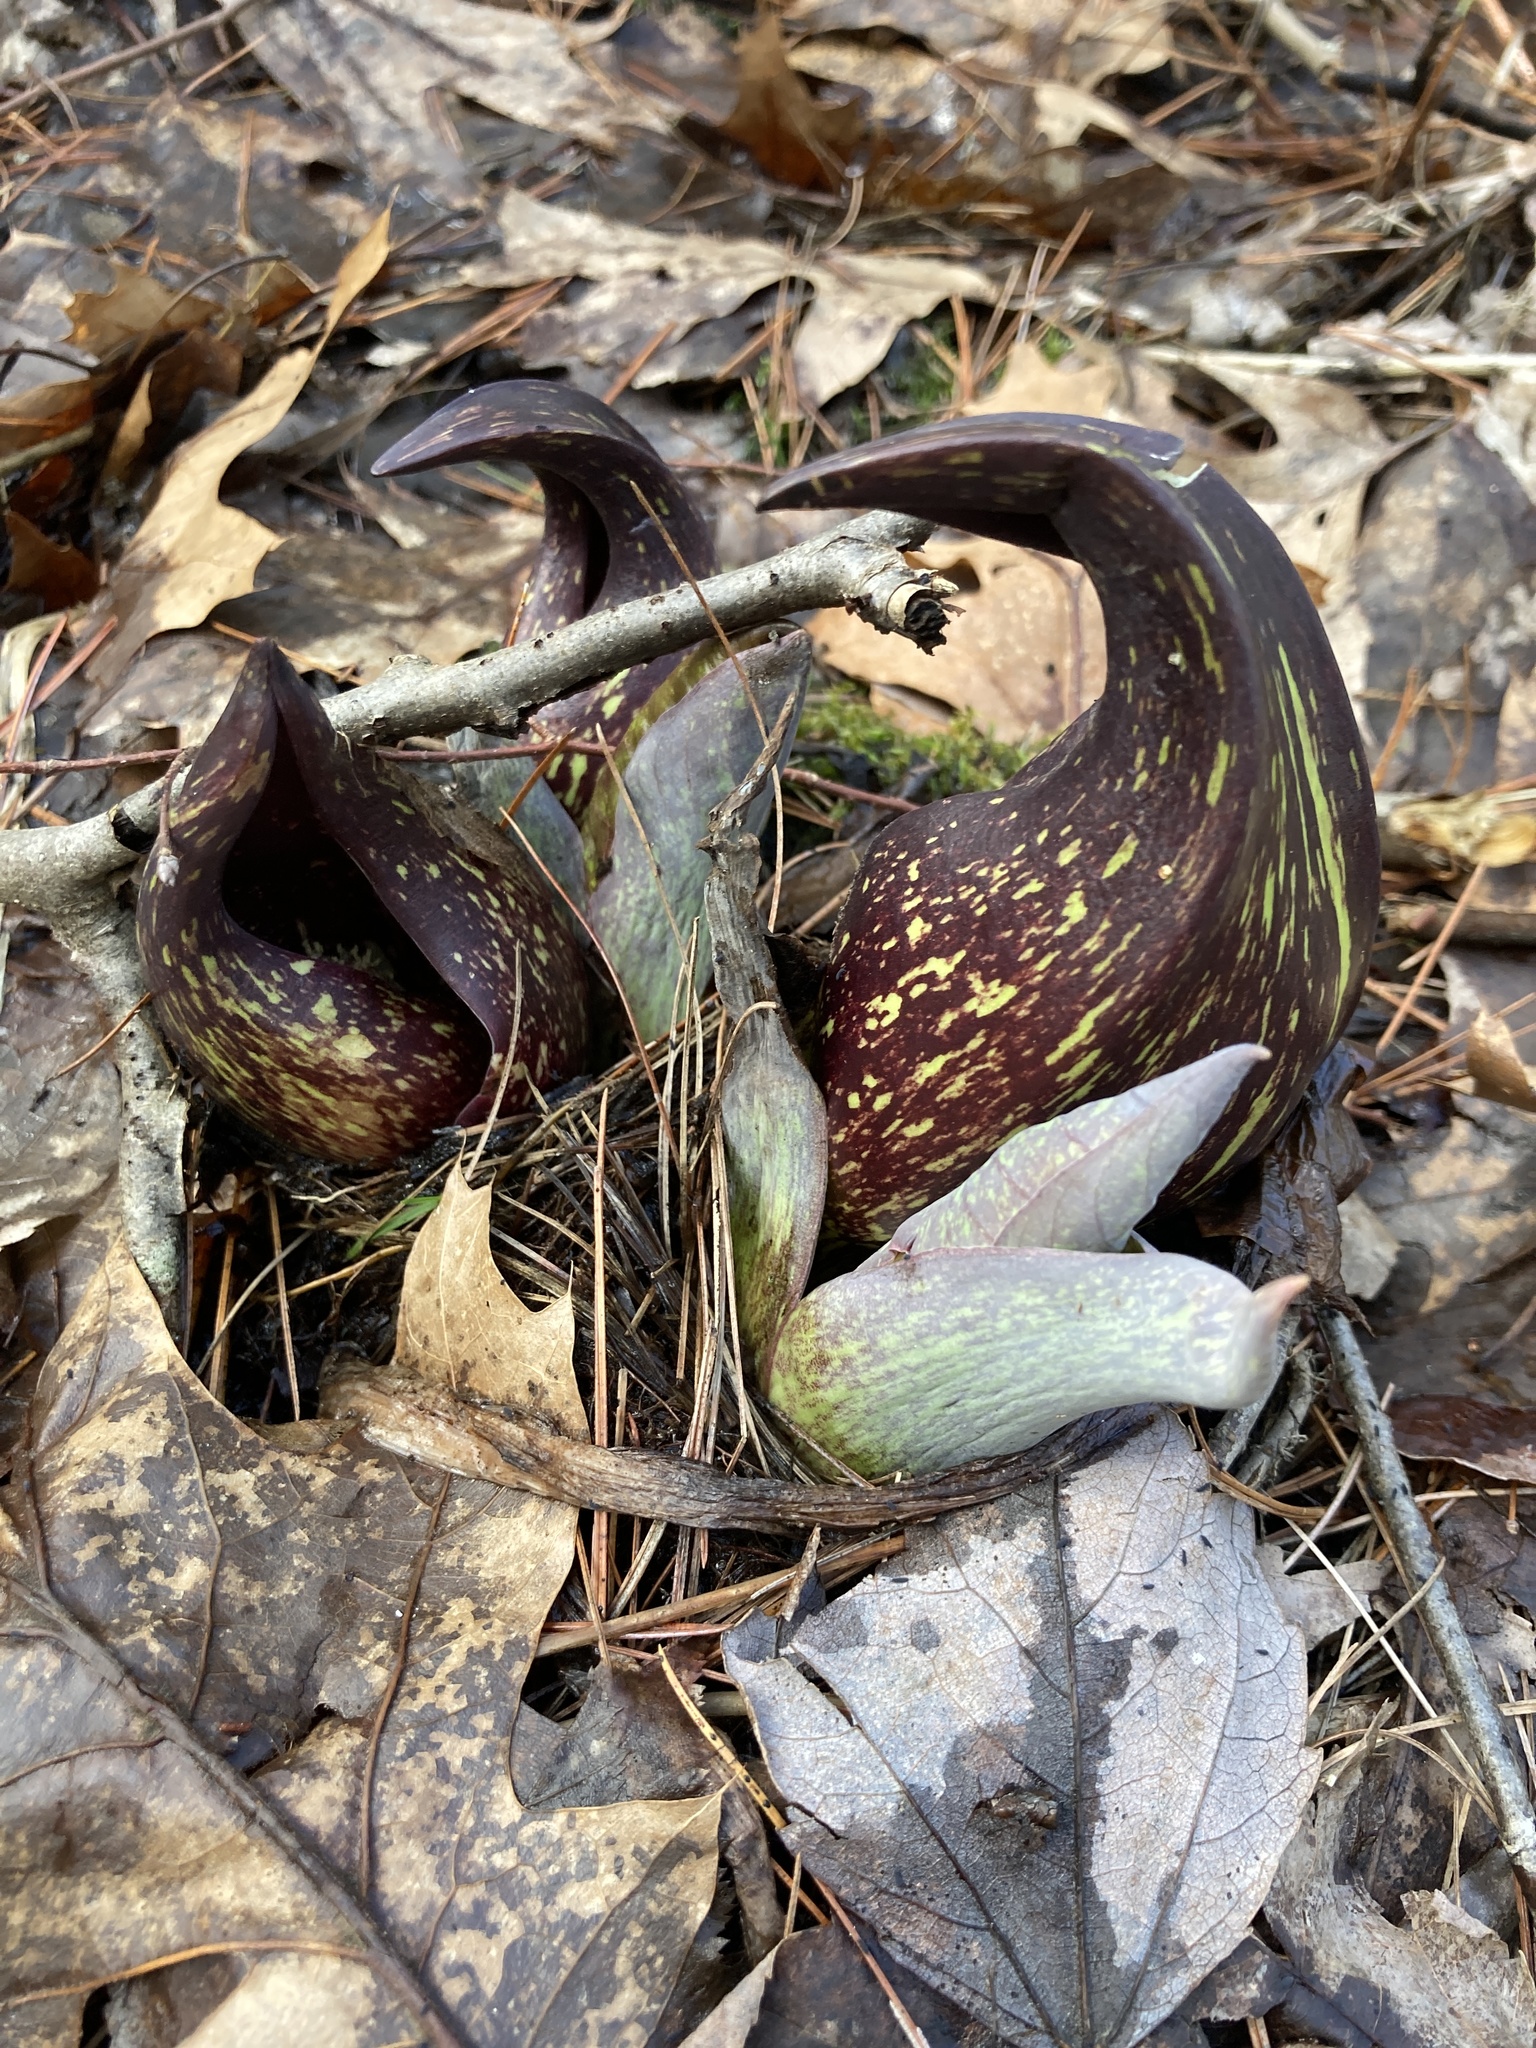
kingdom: Plantae
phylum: Tracheophyta
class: Liliopsida
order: Alismatales
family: Araceae
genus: Symplocarpus
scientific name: Symplocarpus foetidus
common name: Eastern skunk cabbage
